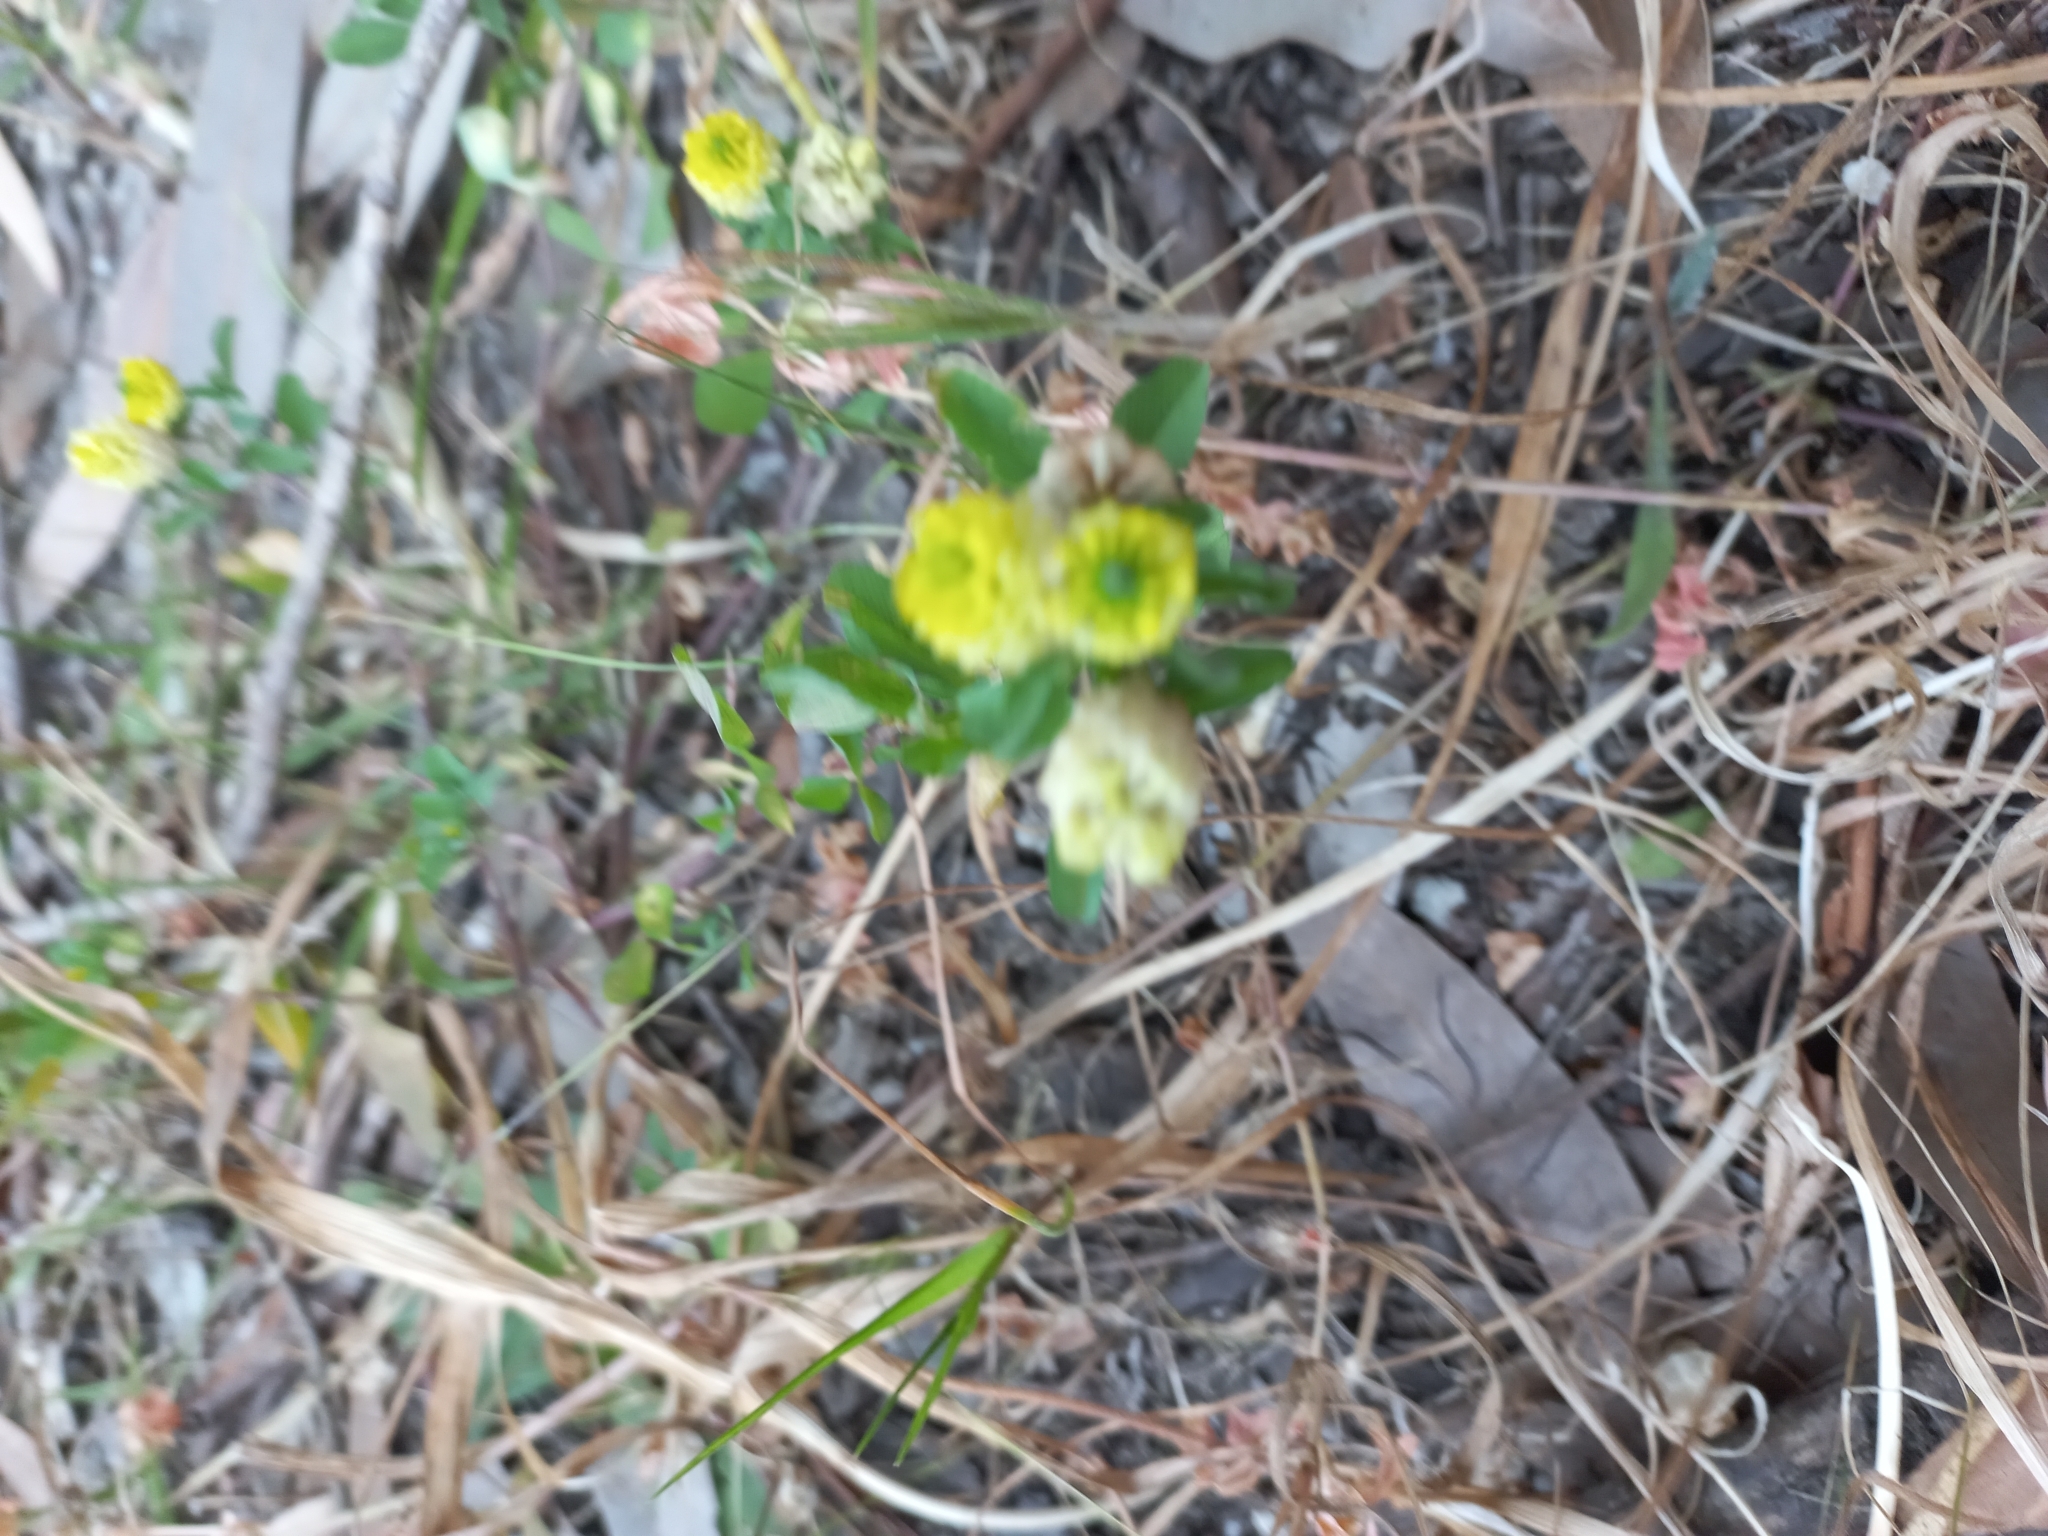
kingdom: Plantae
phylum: Tracheophyta
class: Magnoliopsida
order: Fabales
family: Fabaceae
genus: Trifolium
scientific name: Trifolium campestre
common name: Field clover
